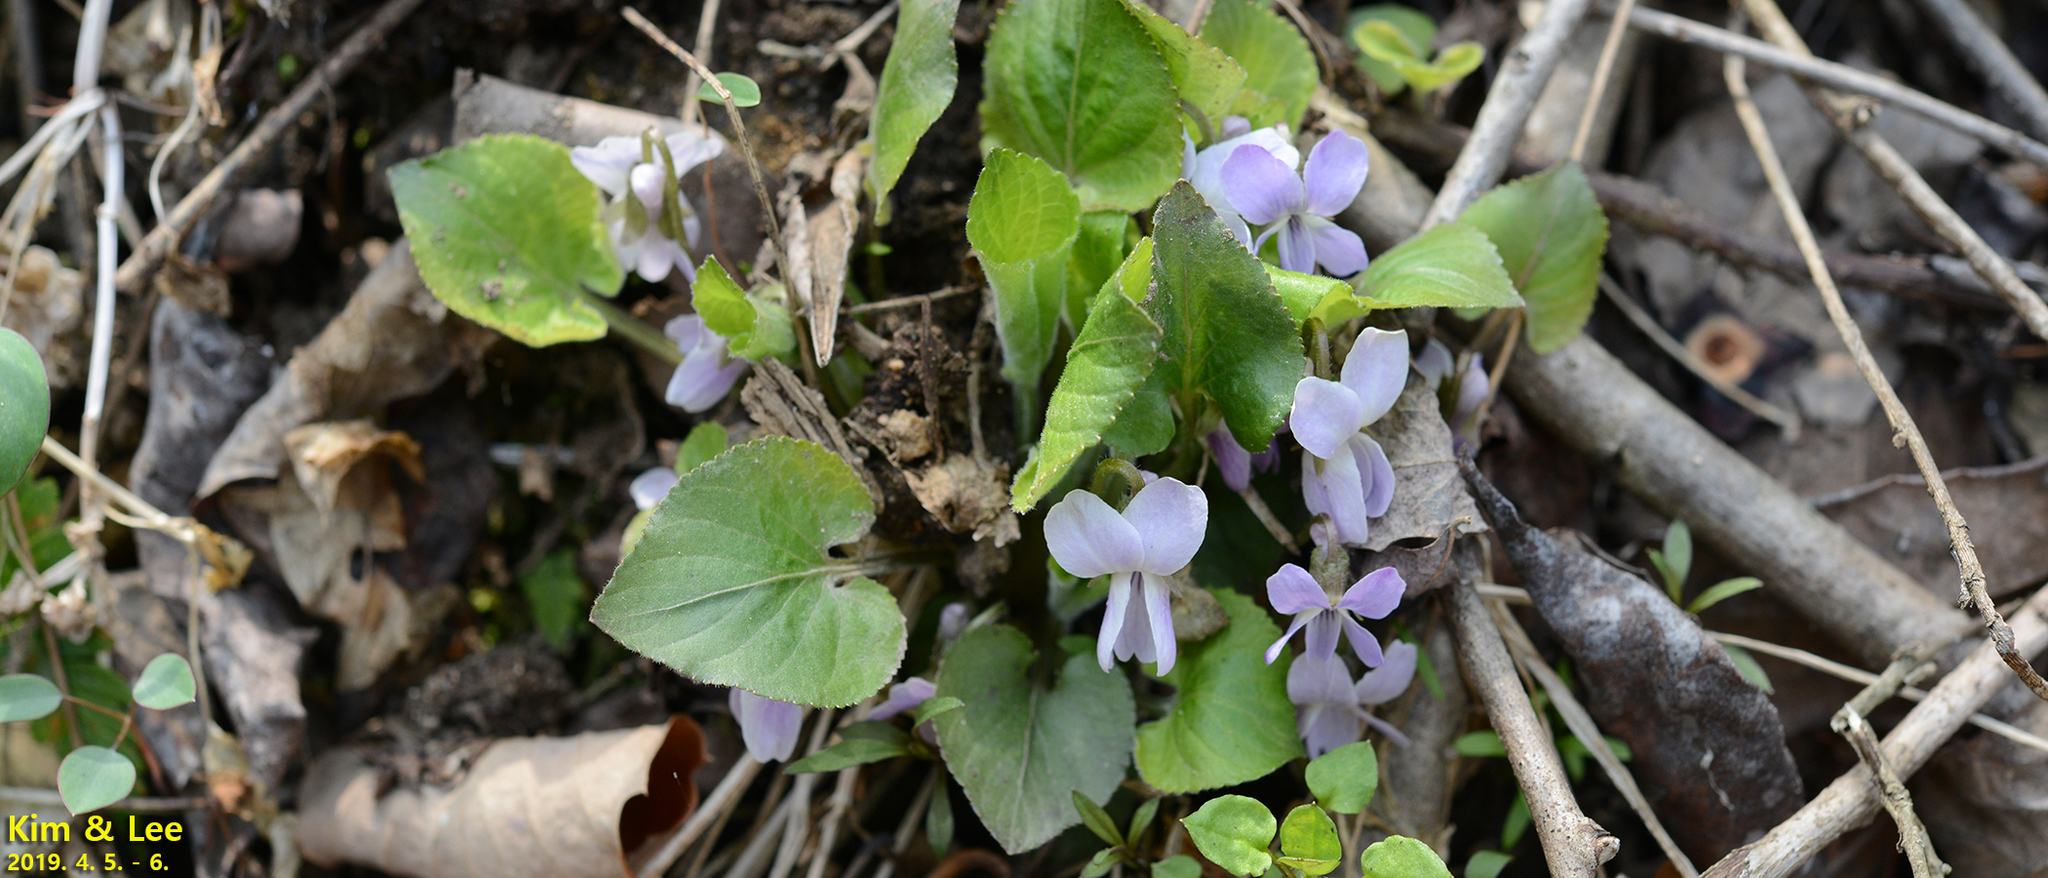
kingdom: Plantae
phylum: Tracheophyta
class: Magnoliopsida
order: Malpighiales
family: Violaceae
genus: Viola
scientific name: Viola collina
